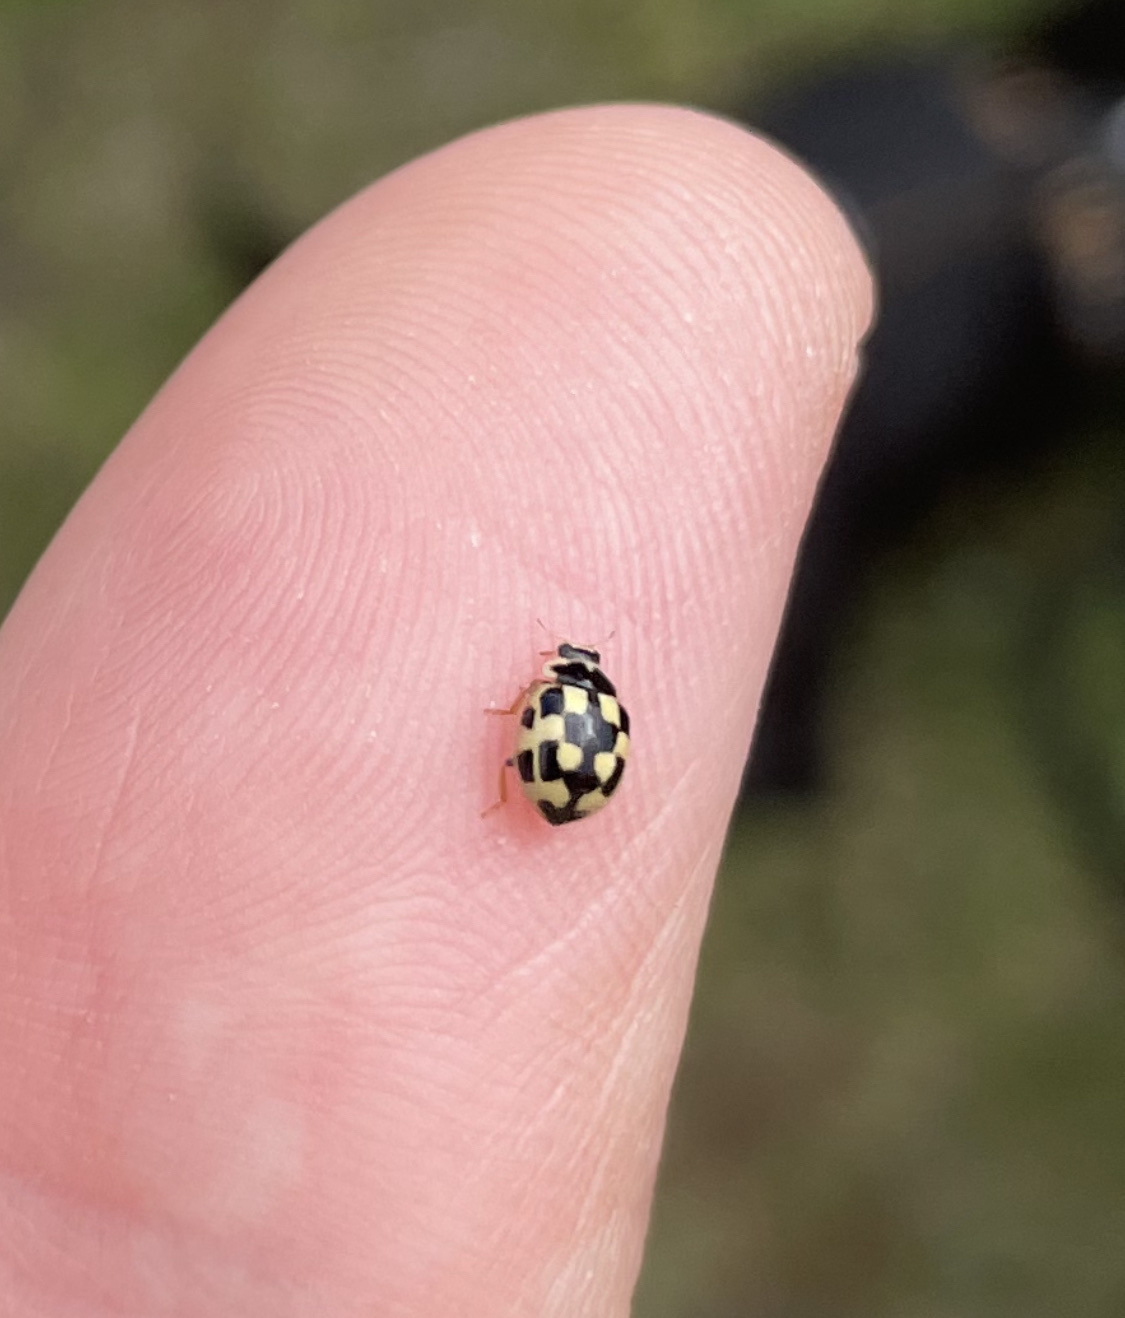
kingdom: Animalia
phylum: Arthropoda
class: Insecta
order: Coleoptera
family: Coccinellidae
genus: Propylaea
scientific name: Propylaea quatuordecimpunctata
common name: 14-spotted ladybird beetle
